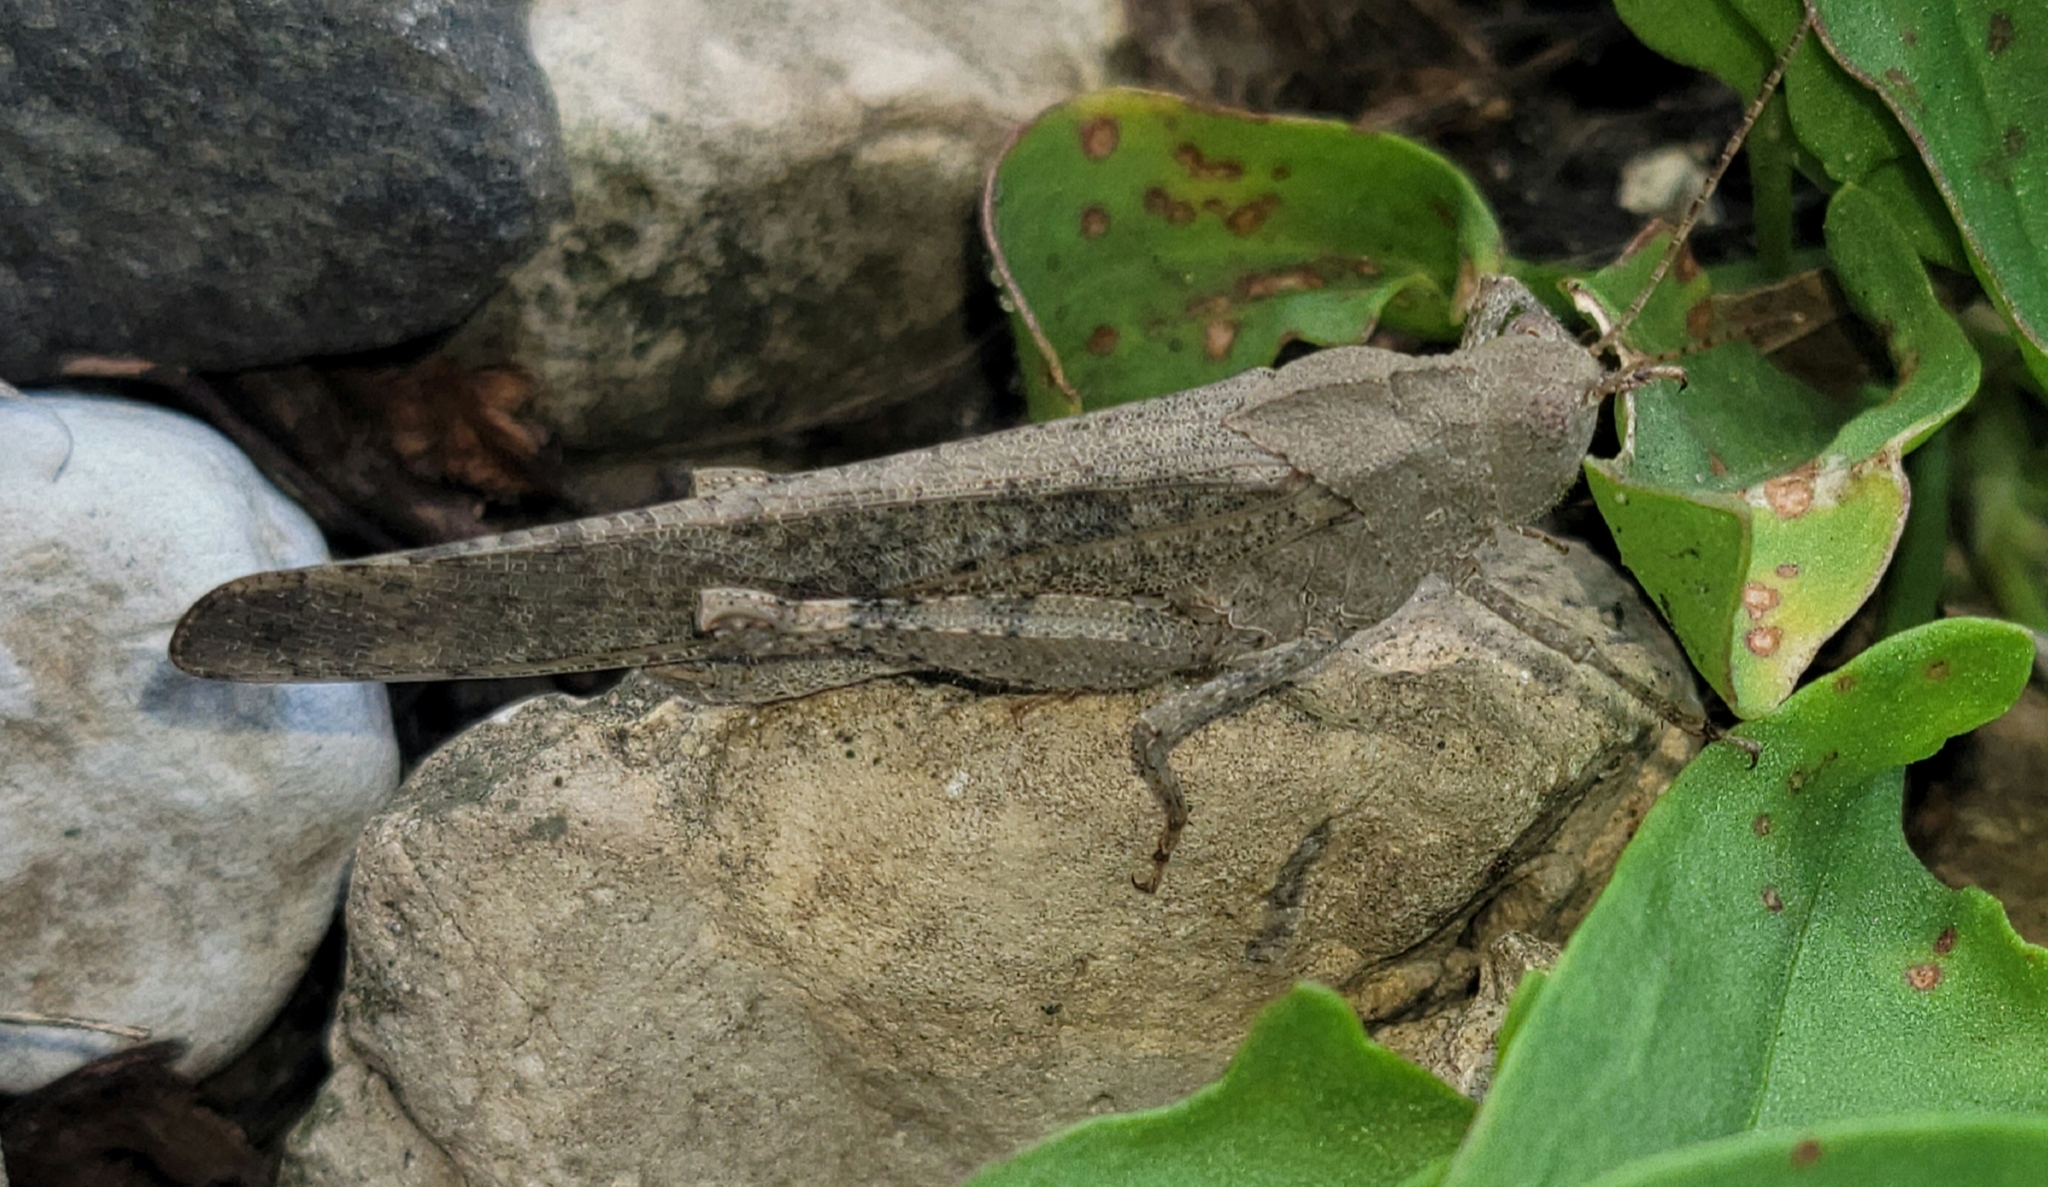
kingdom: Animalia
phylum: Arthropoda
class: Insecta
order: Orthoptera
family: Acrididae
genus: Dissosteira
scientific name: Dissosteira carolina
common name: Carolina grasshopper
